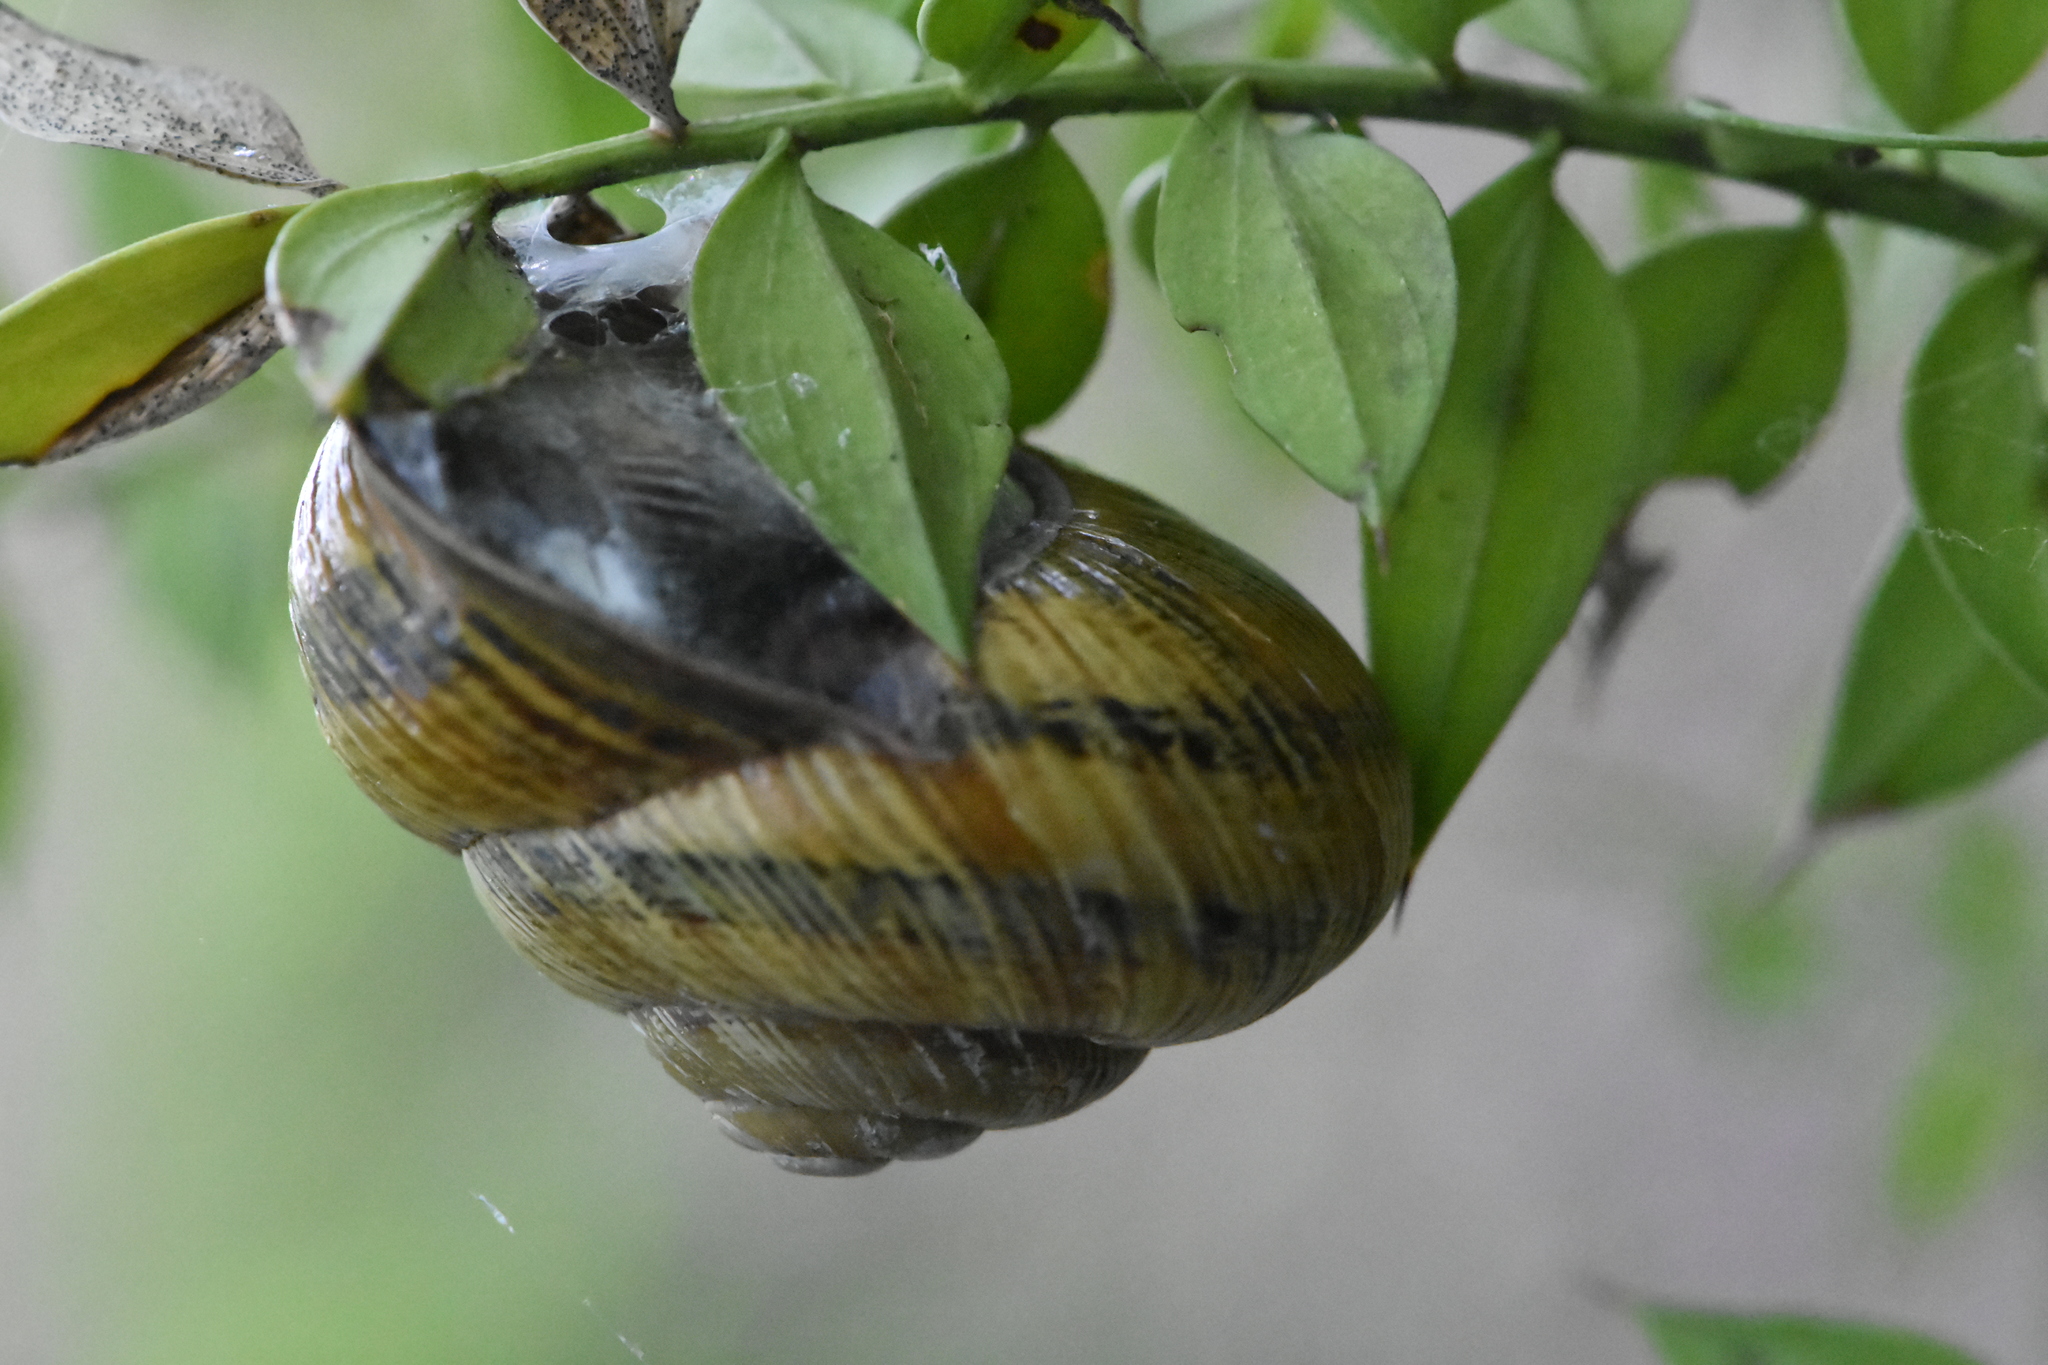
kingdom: Animalia
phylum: Mollusca
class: Gastropoda
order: Stylommatophora
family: Helicidae
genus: Caucasotachea
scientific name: Caucasotachea atrolabiata
